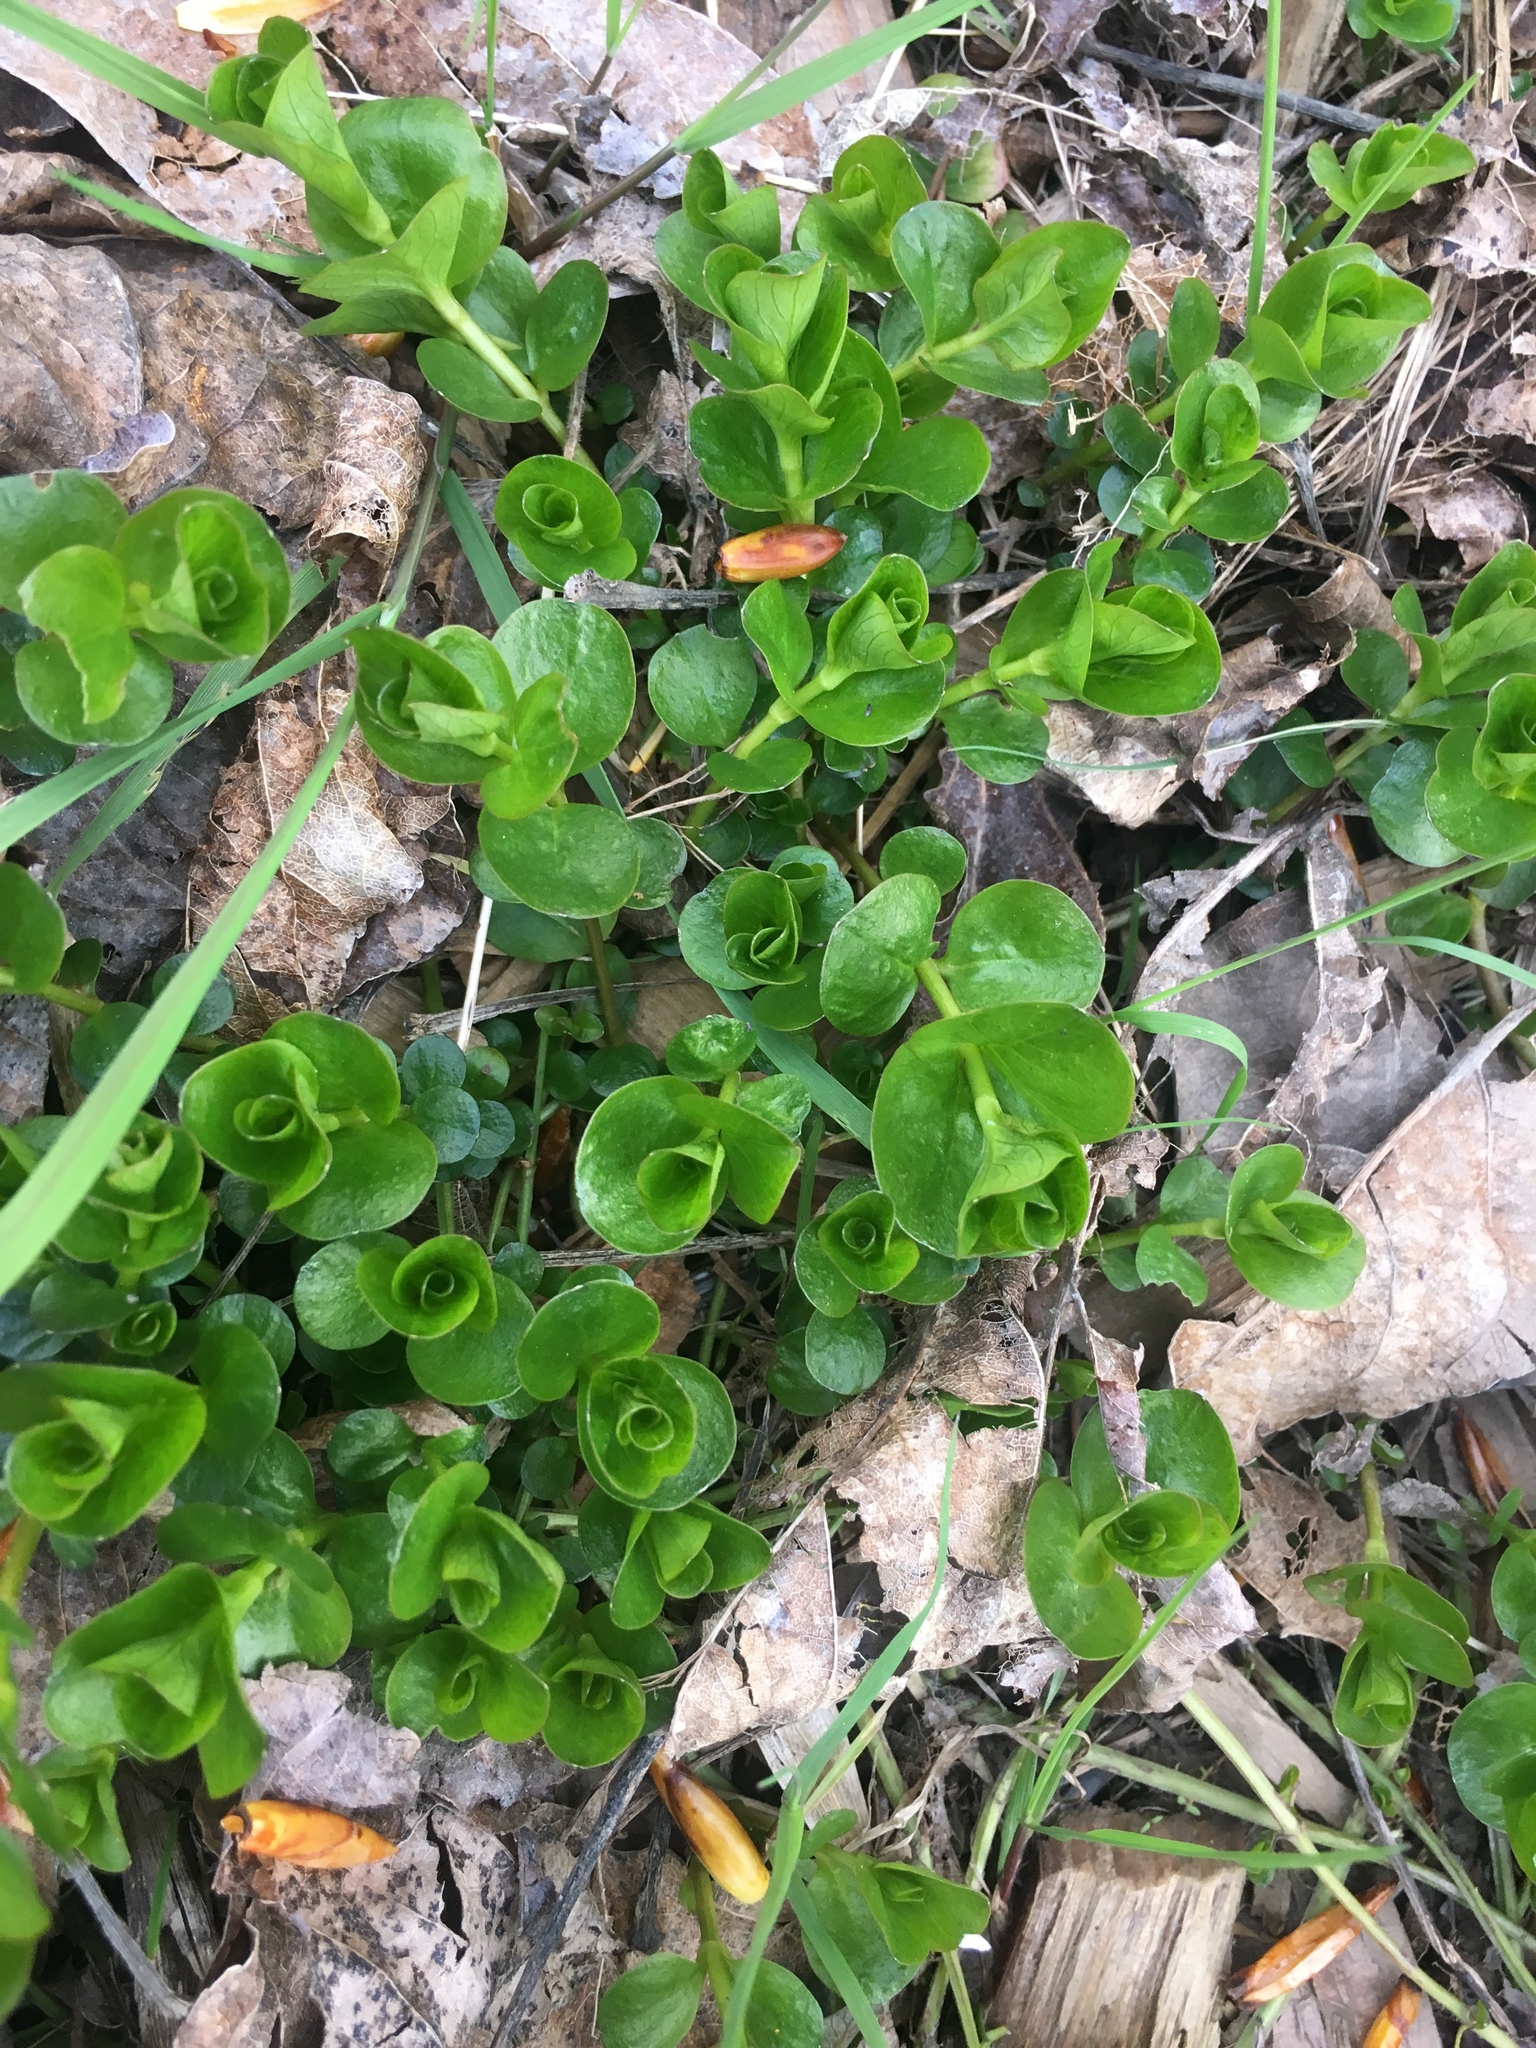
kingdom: Plantae
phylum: Tracheophyta
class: Magnoliopsida
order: Ericales
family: Primulaceae
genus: Lysimachia
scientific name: Lysimachia nummularia
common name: Moneywort
